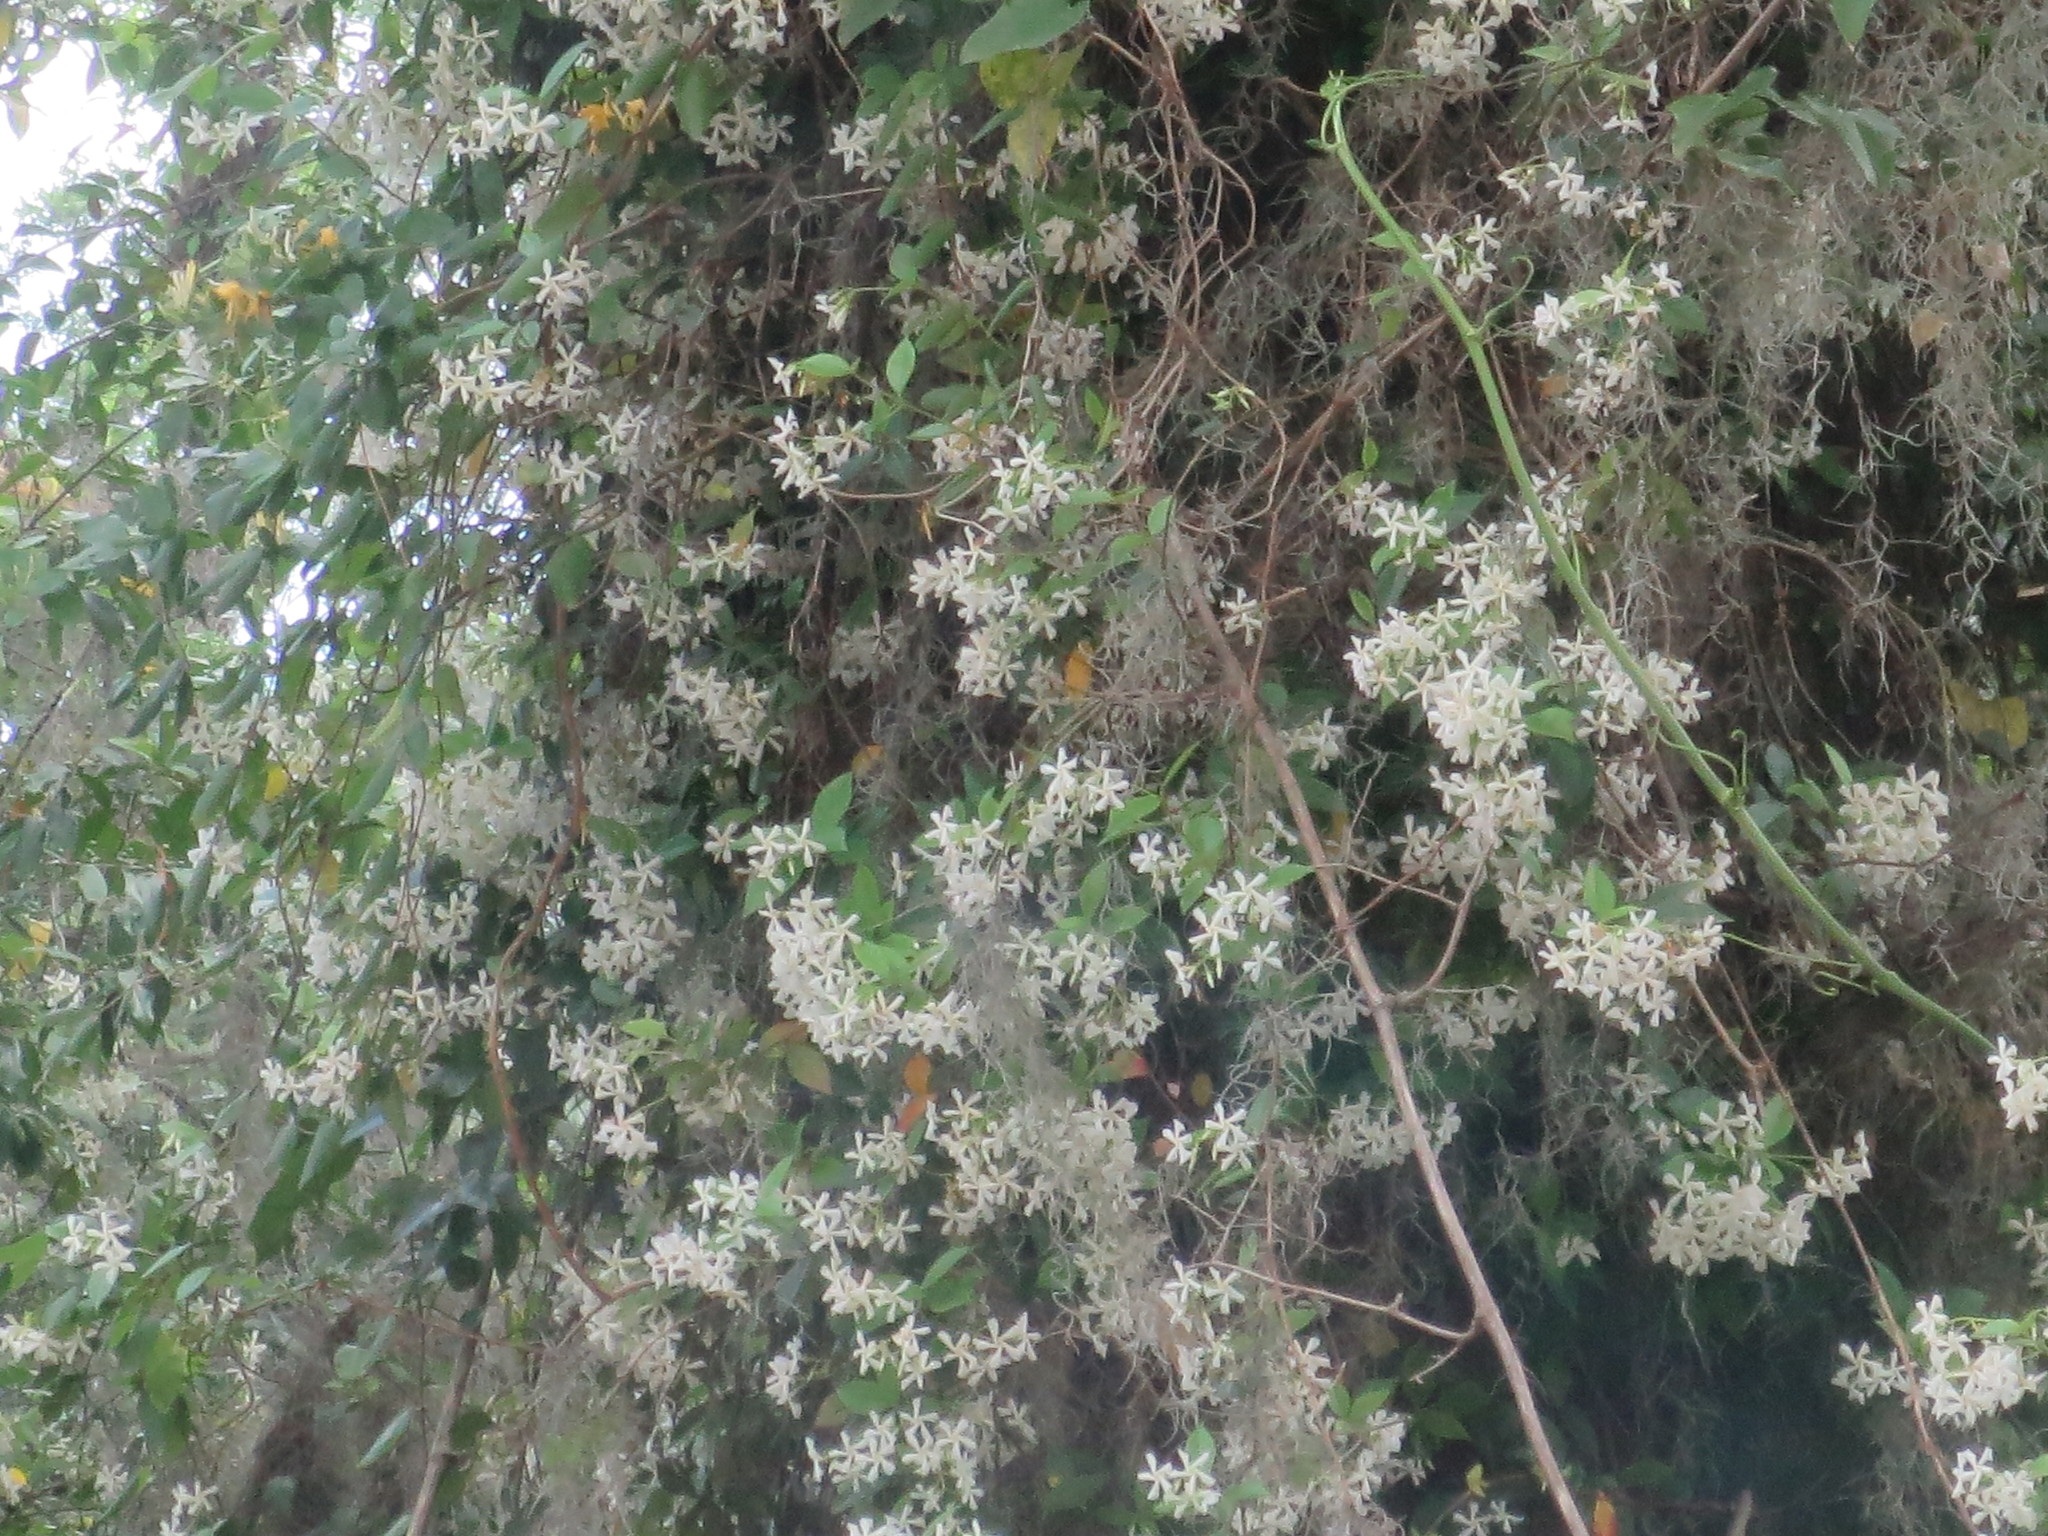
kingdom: Plantae
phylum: Tracheophyta
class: Magnoliopsida
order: Gentianales
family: Apocynaceae
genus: Trachelospermum
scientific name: Trachelospermum jasminoides
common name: Confederate jasmine
